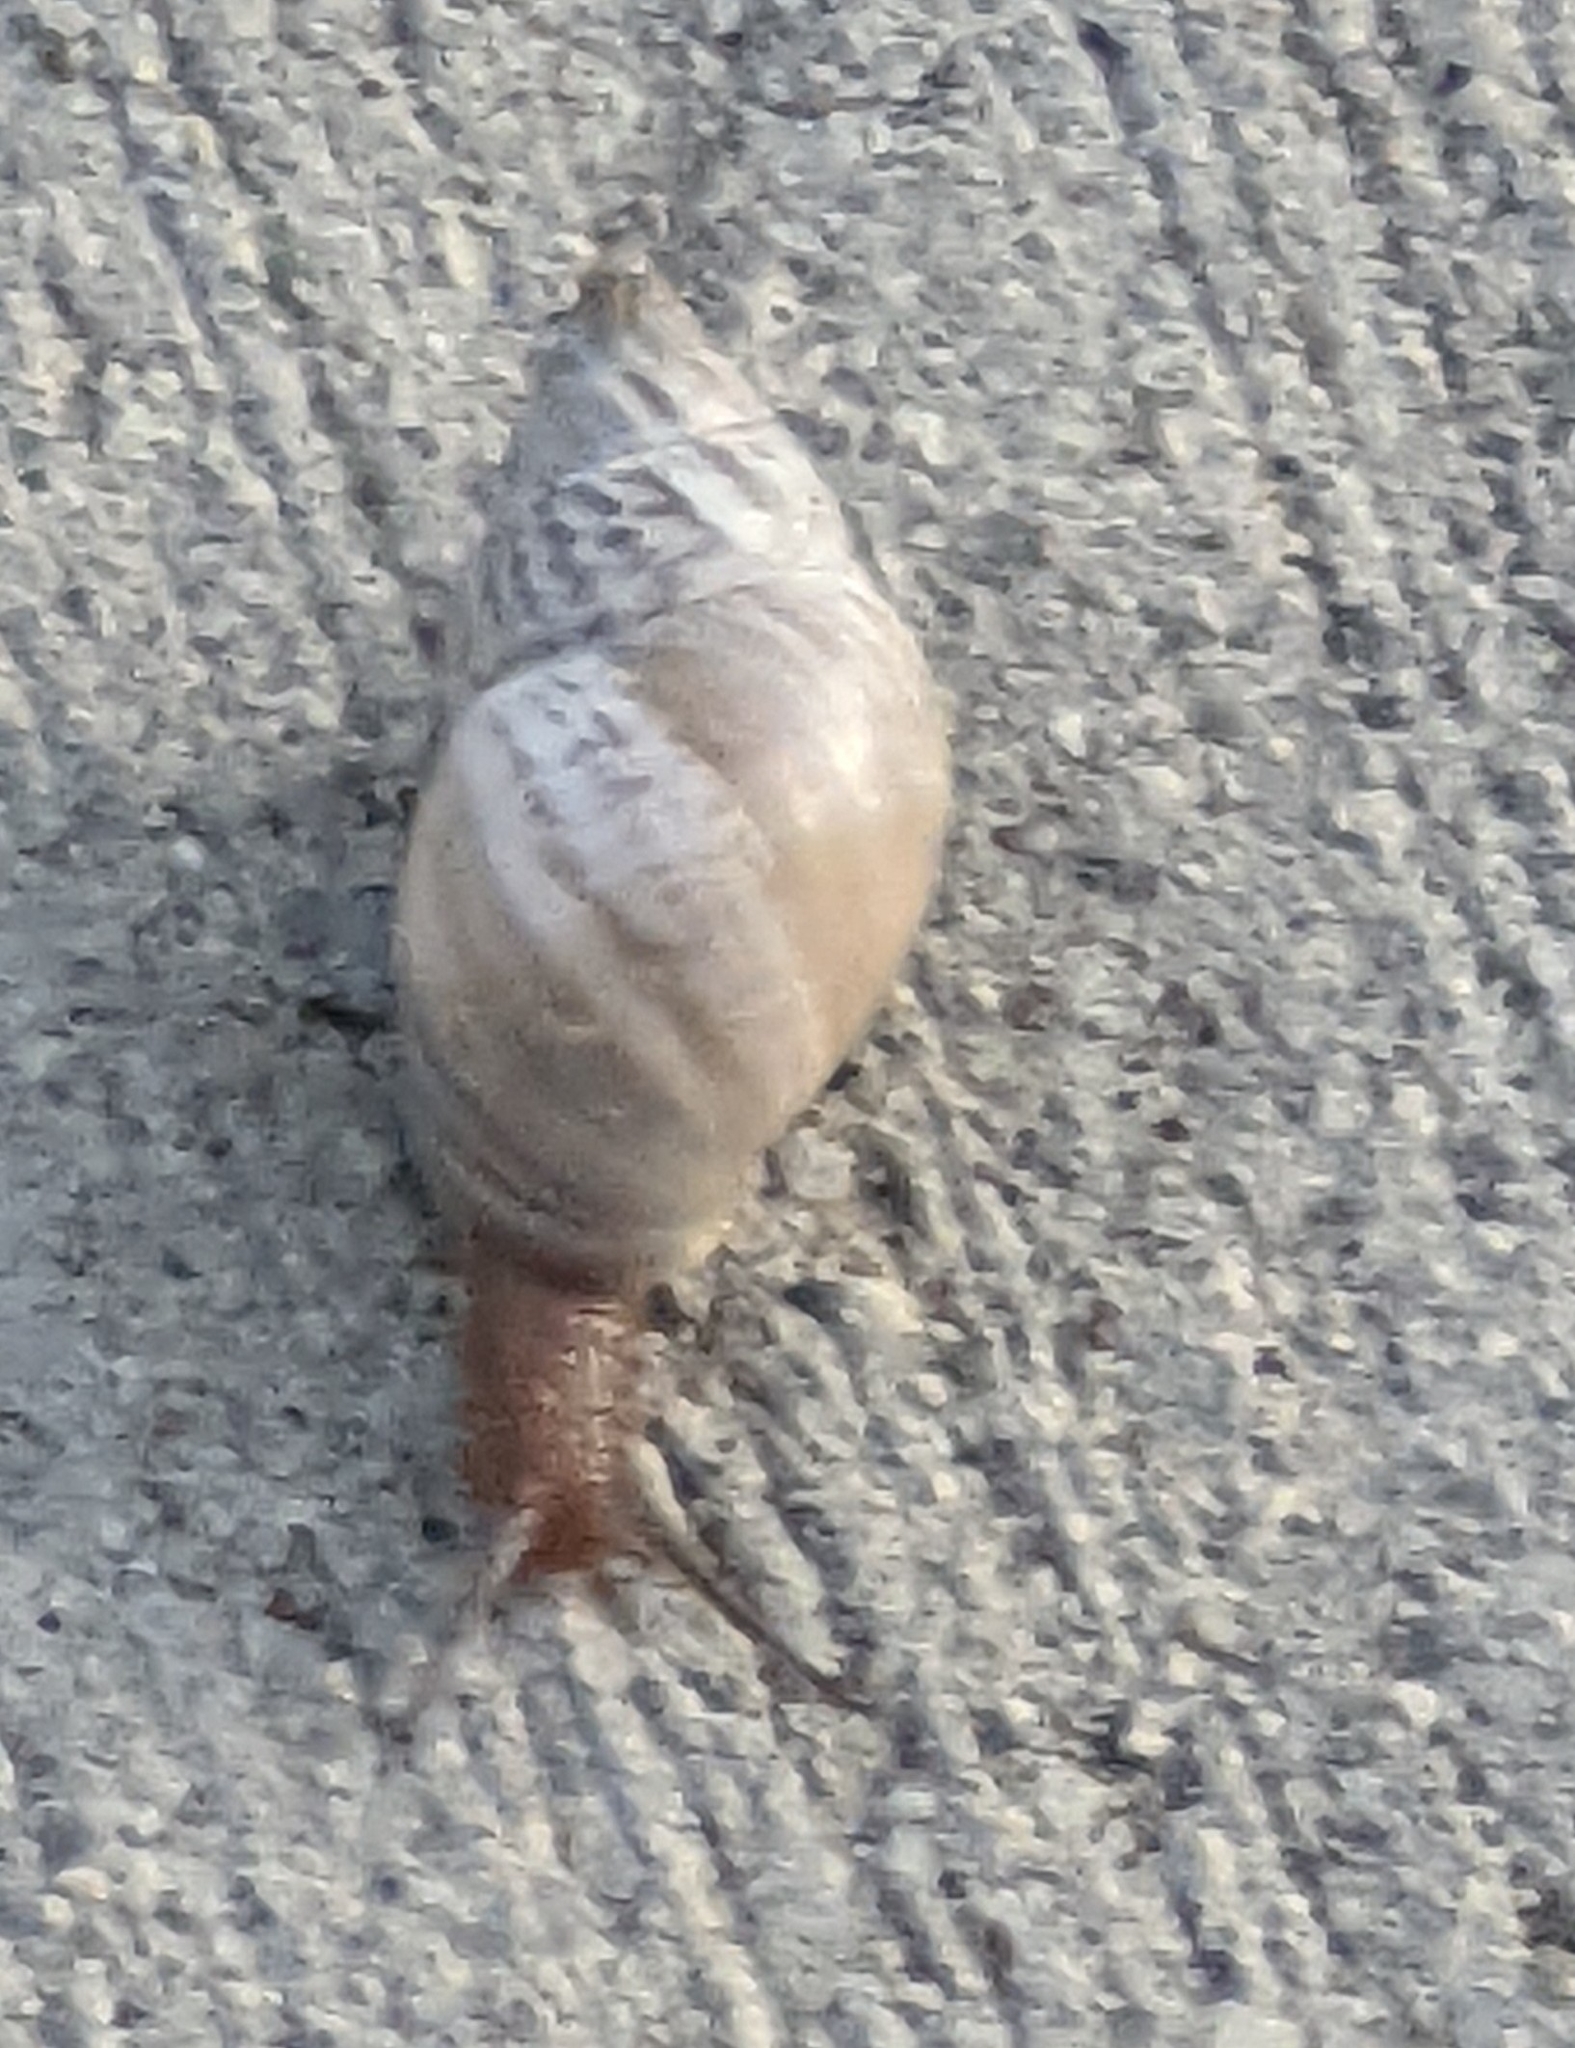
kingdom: Animalia
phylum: Mollusca
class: Gastropoda
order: Stylommatophora
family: Bulimulidae
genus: Rabdotus
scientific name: Rabdotus dealbatus
